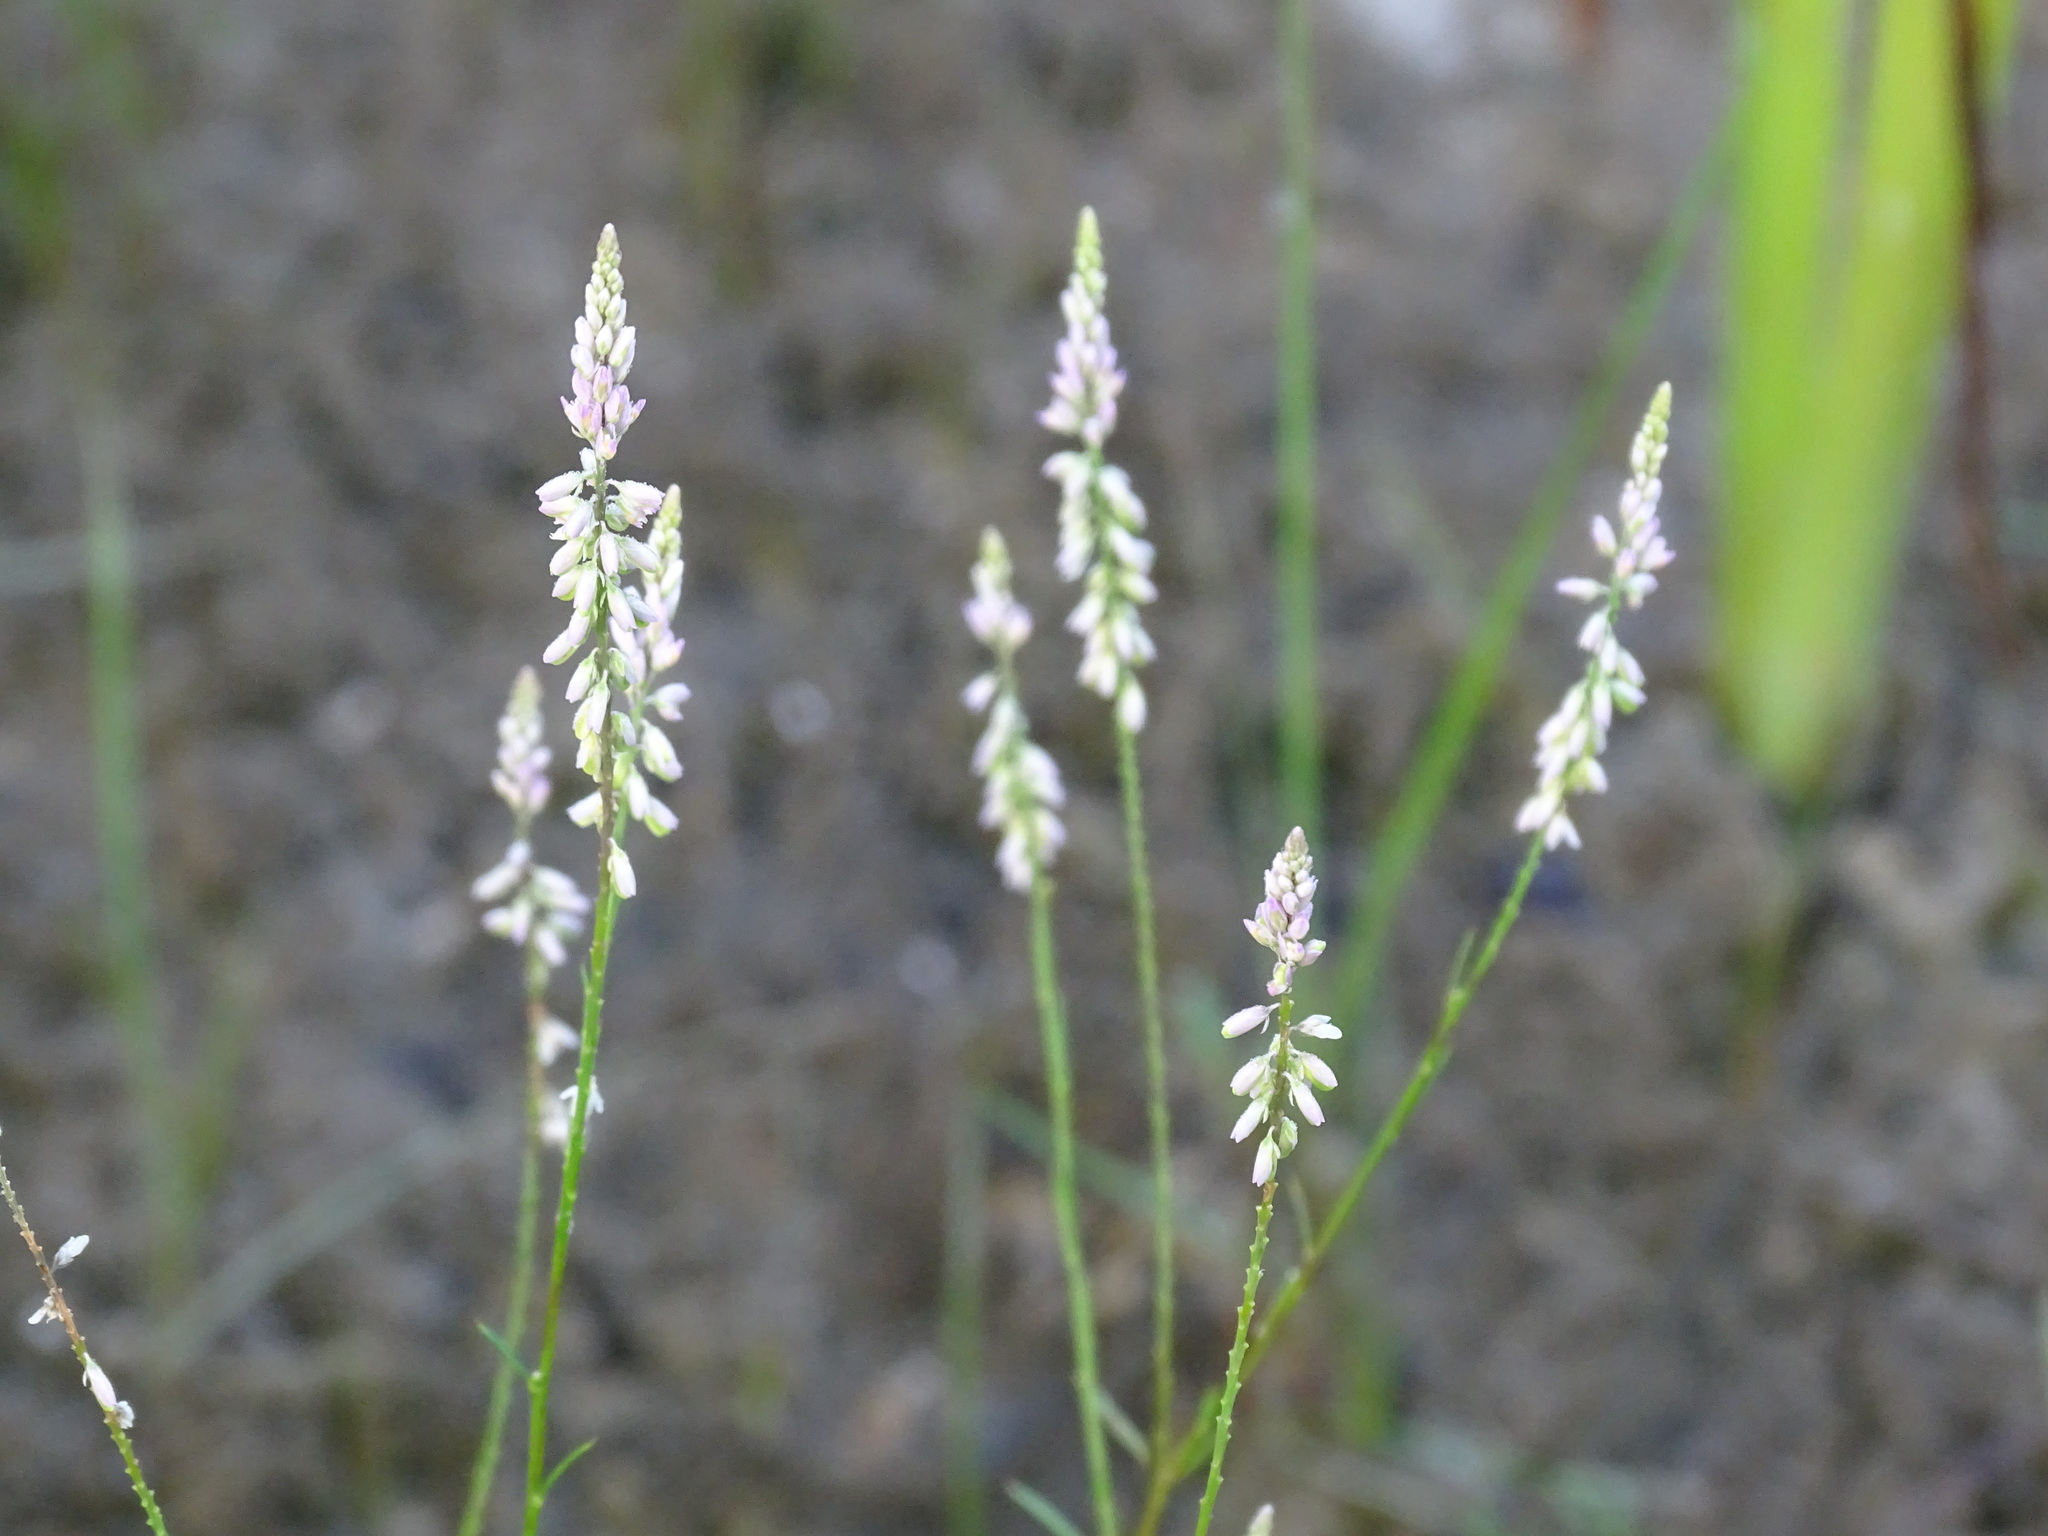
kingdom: Plantae
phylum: Tracheophyta
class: Magnoliopsida
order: Fabales
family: Polygalaceae
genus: Polygala
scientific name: Polygala tenella
